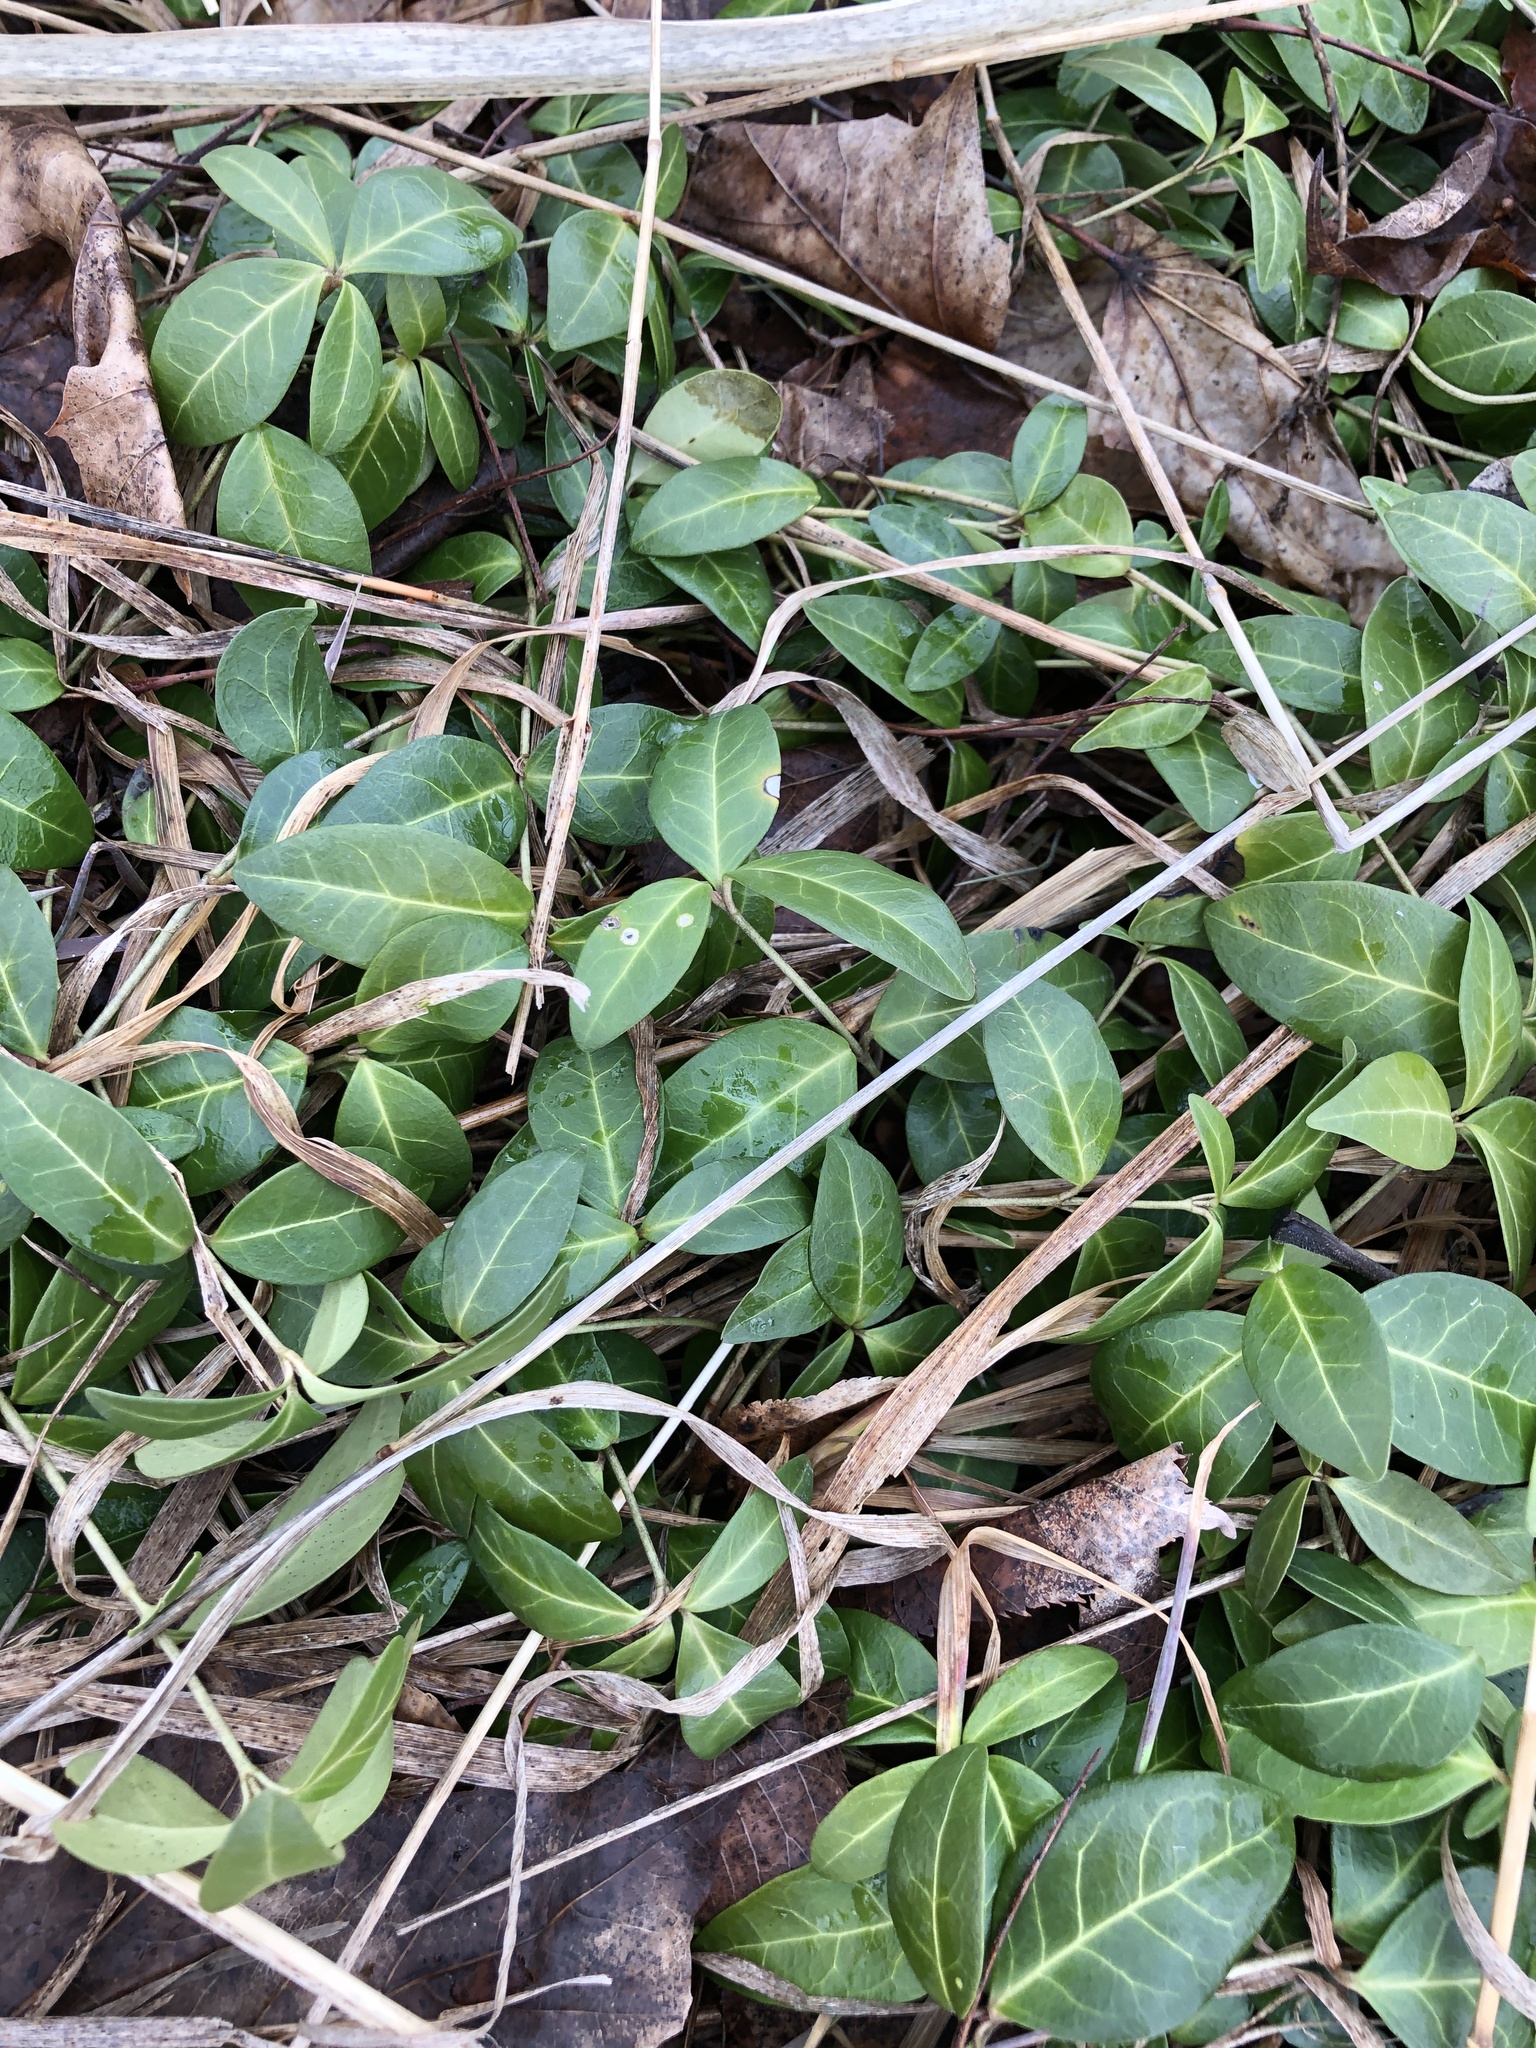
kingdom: Plantae
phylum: Tracheophyta
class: Magnoliopsida
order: Gentianales
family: Apocynaceae
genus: Vinca
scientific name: Vinca minor
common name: Lesser periwinkle
